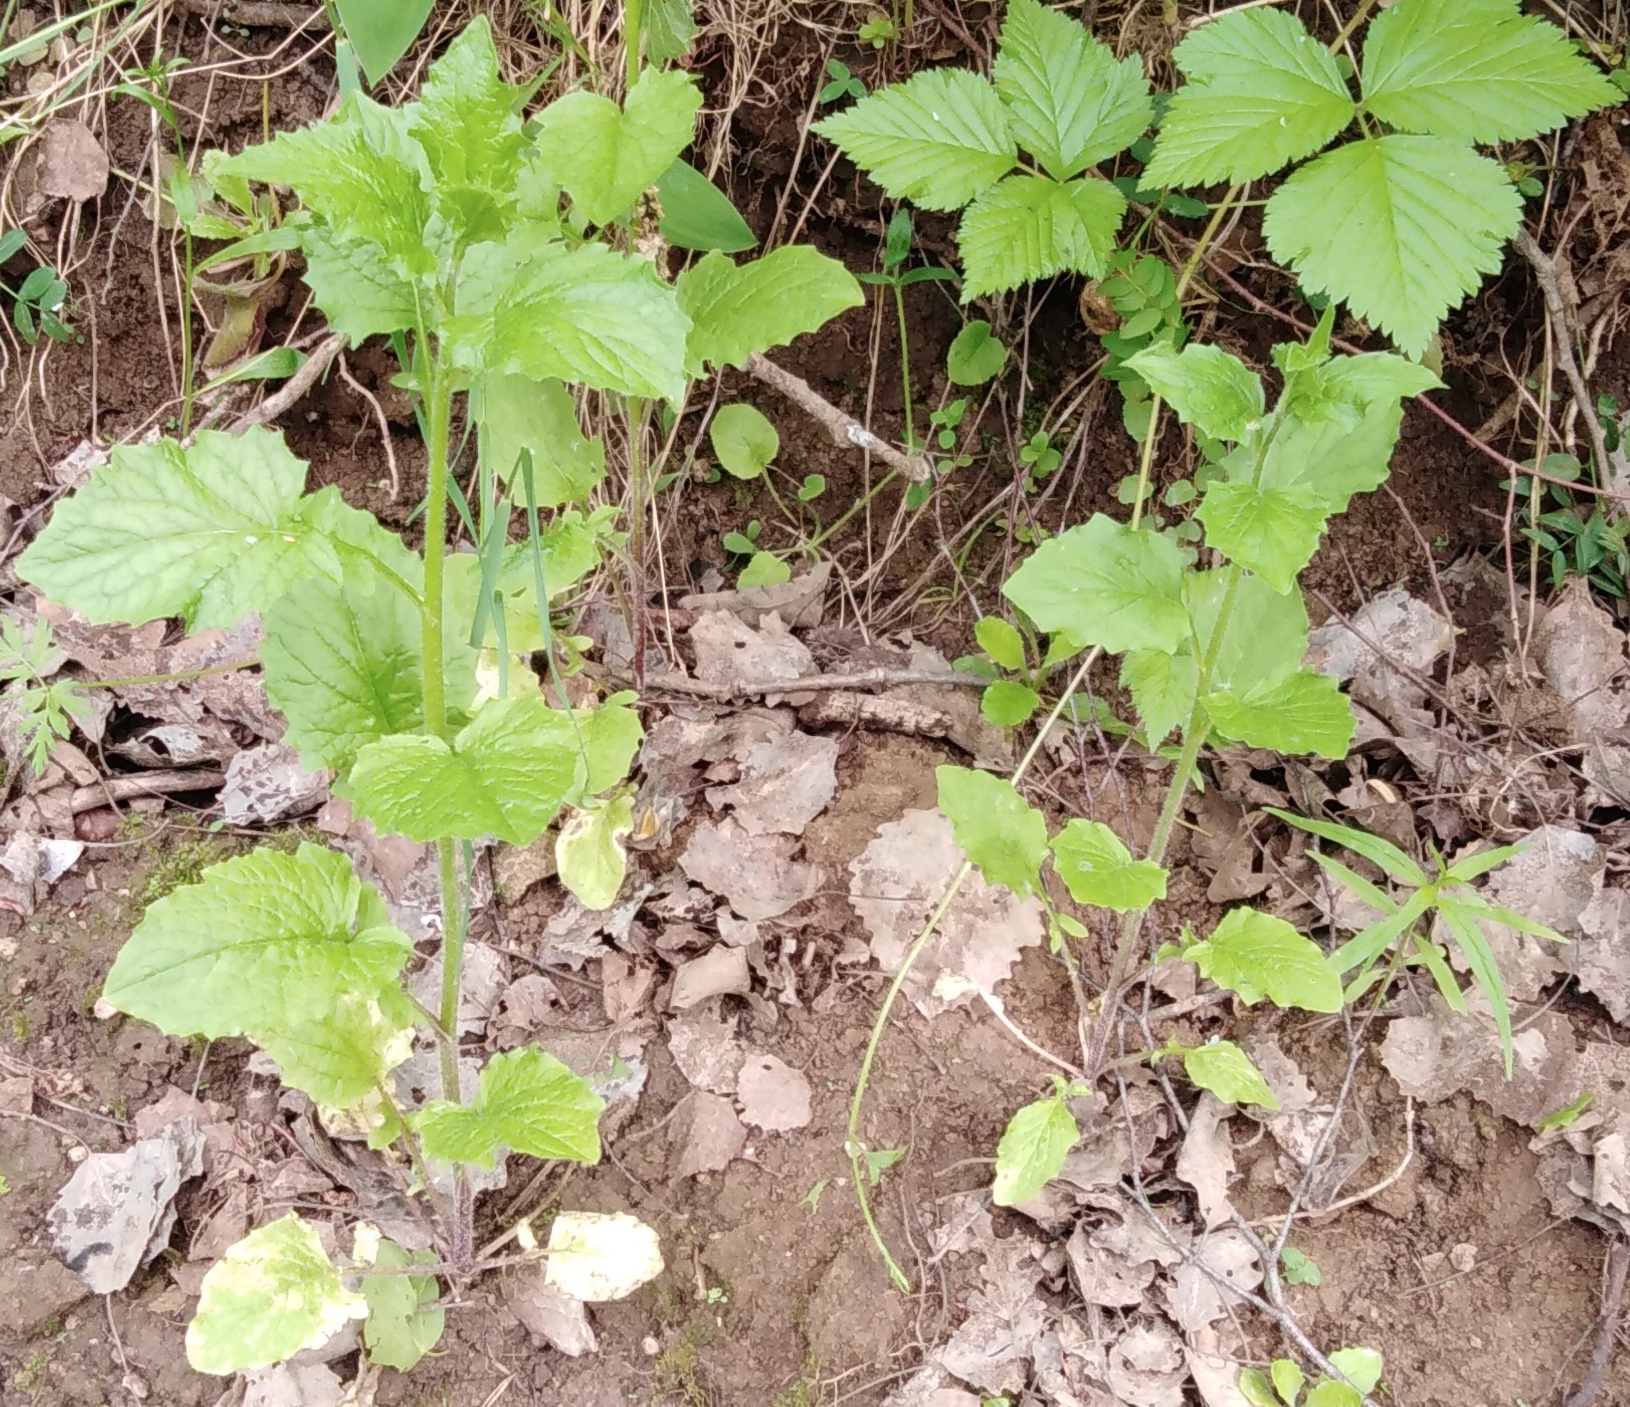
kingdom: Plantae
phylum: Tracheophyta
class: Magnoliopsida
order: Asterales
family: Asteraceae
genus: Lapsana
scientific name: Lapsana communis
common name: Nipplewort
